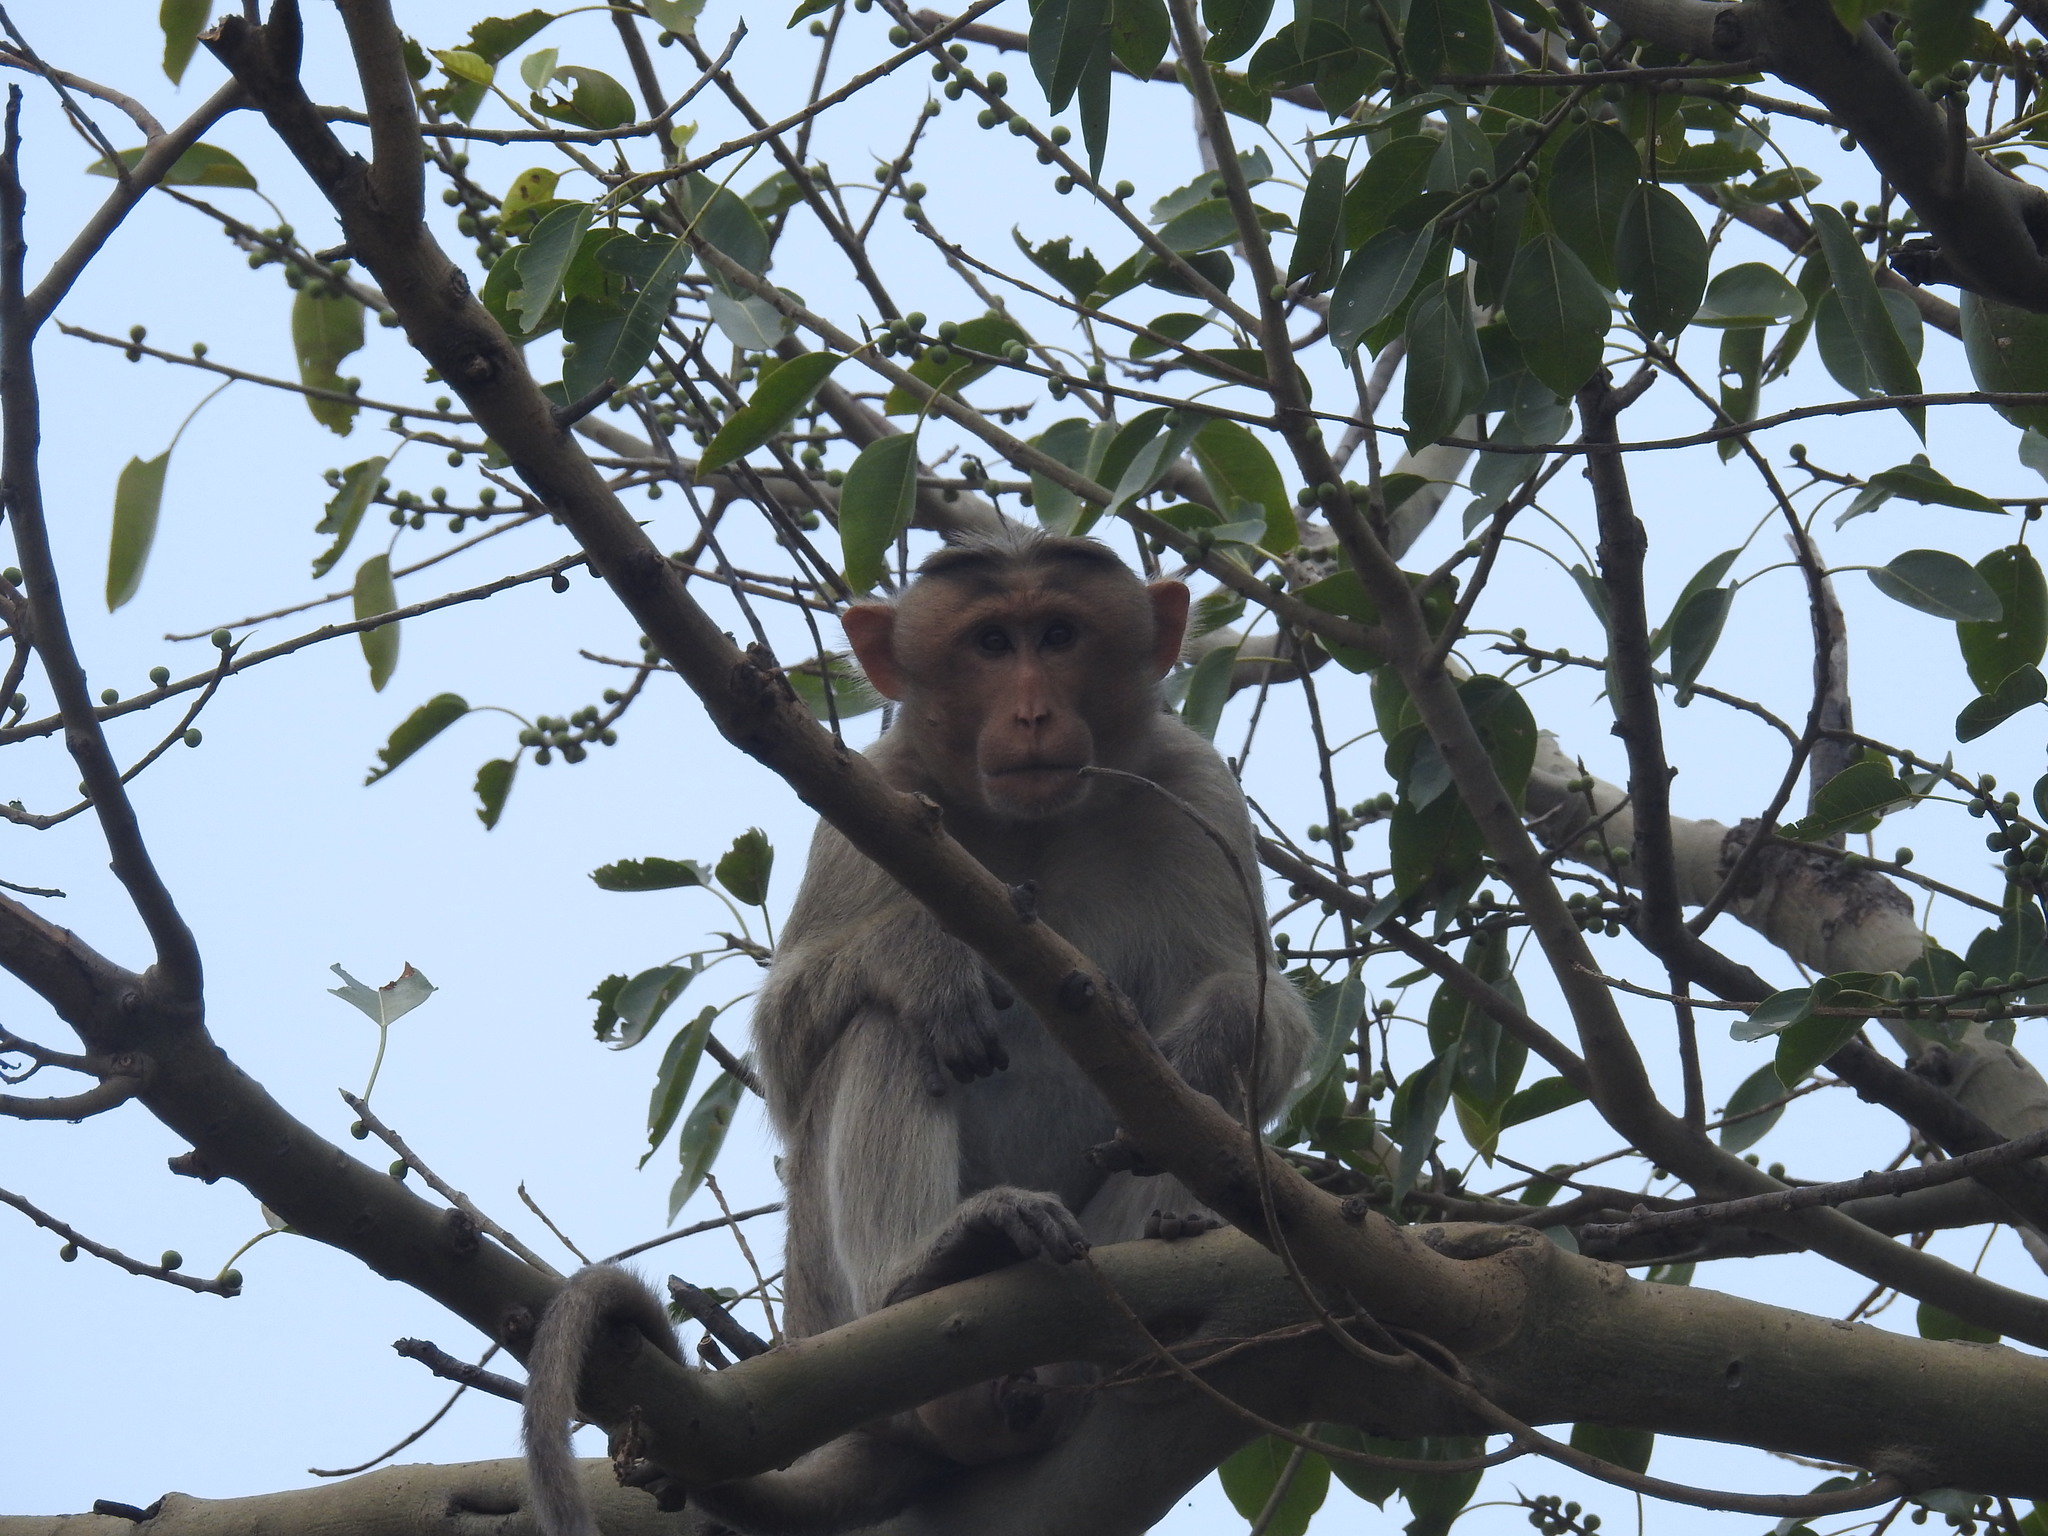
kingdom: Animalia
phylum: Chordata
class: Mammalia
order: Primates
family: Cercopithecidae
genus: Macaca
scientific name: Macaca radiata
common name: Bonnet macaque
